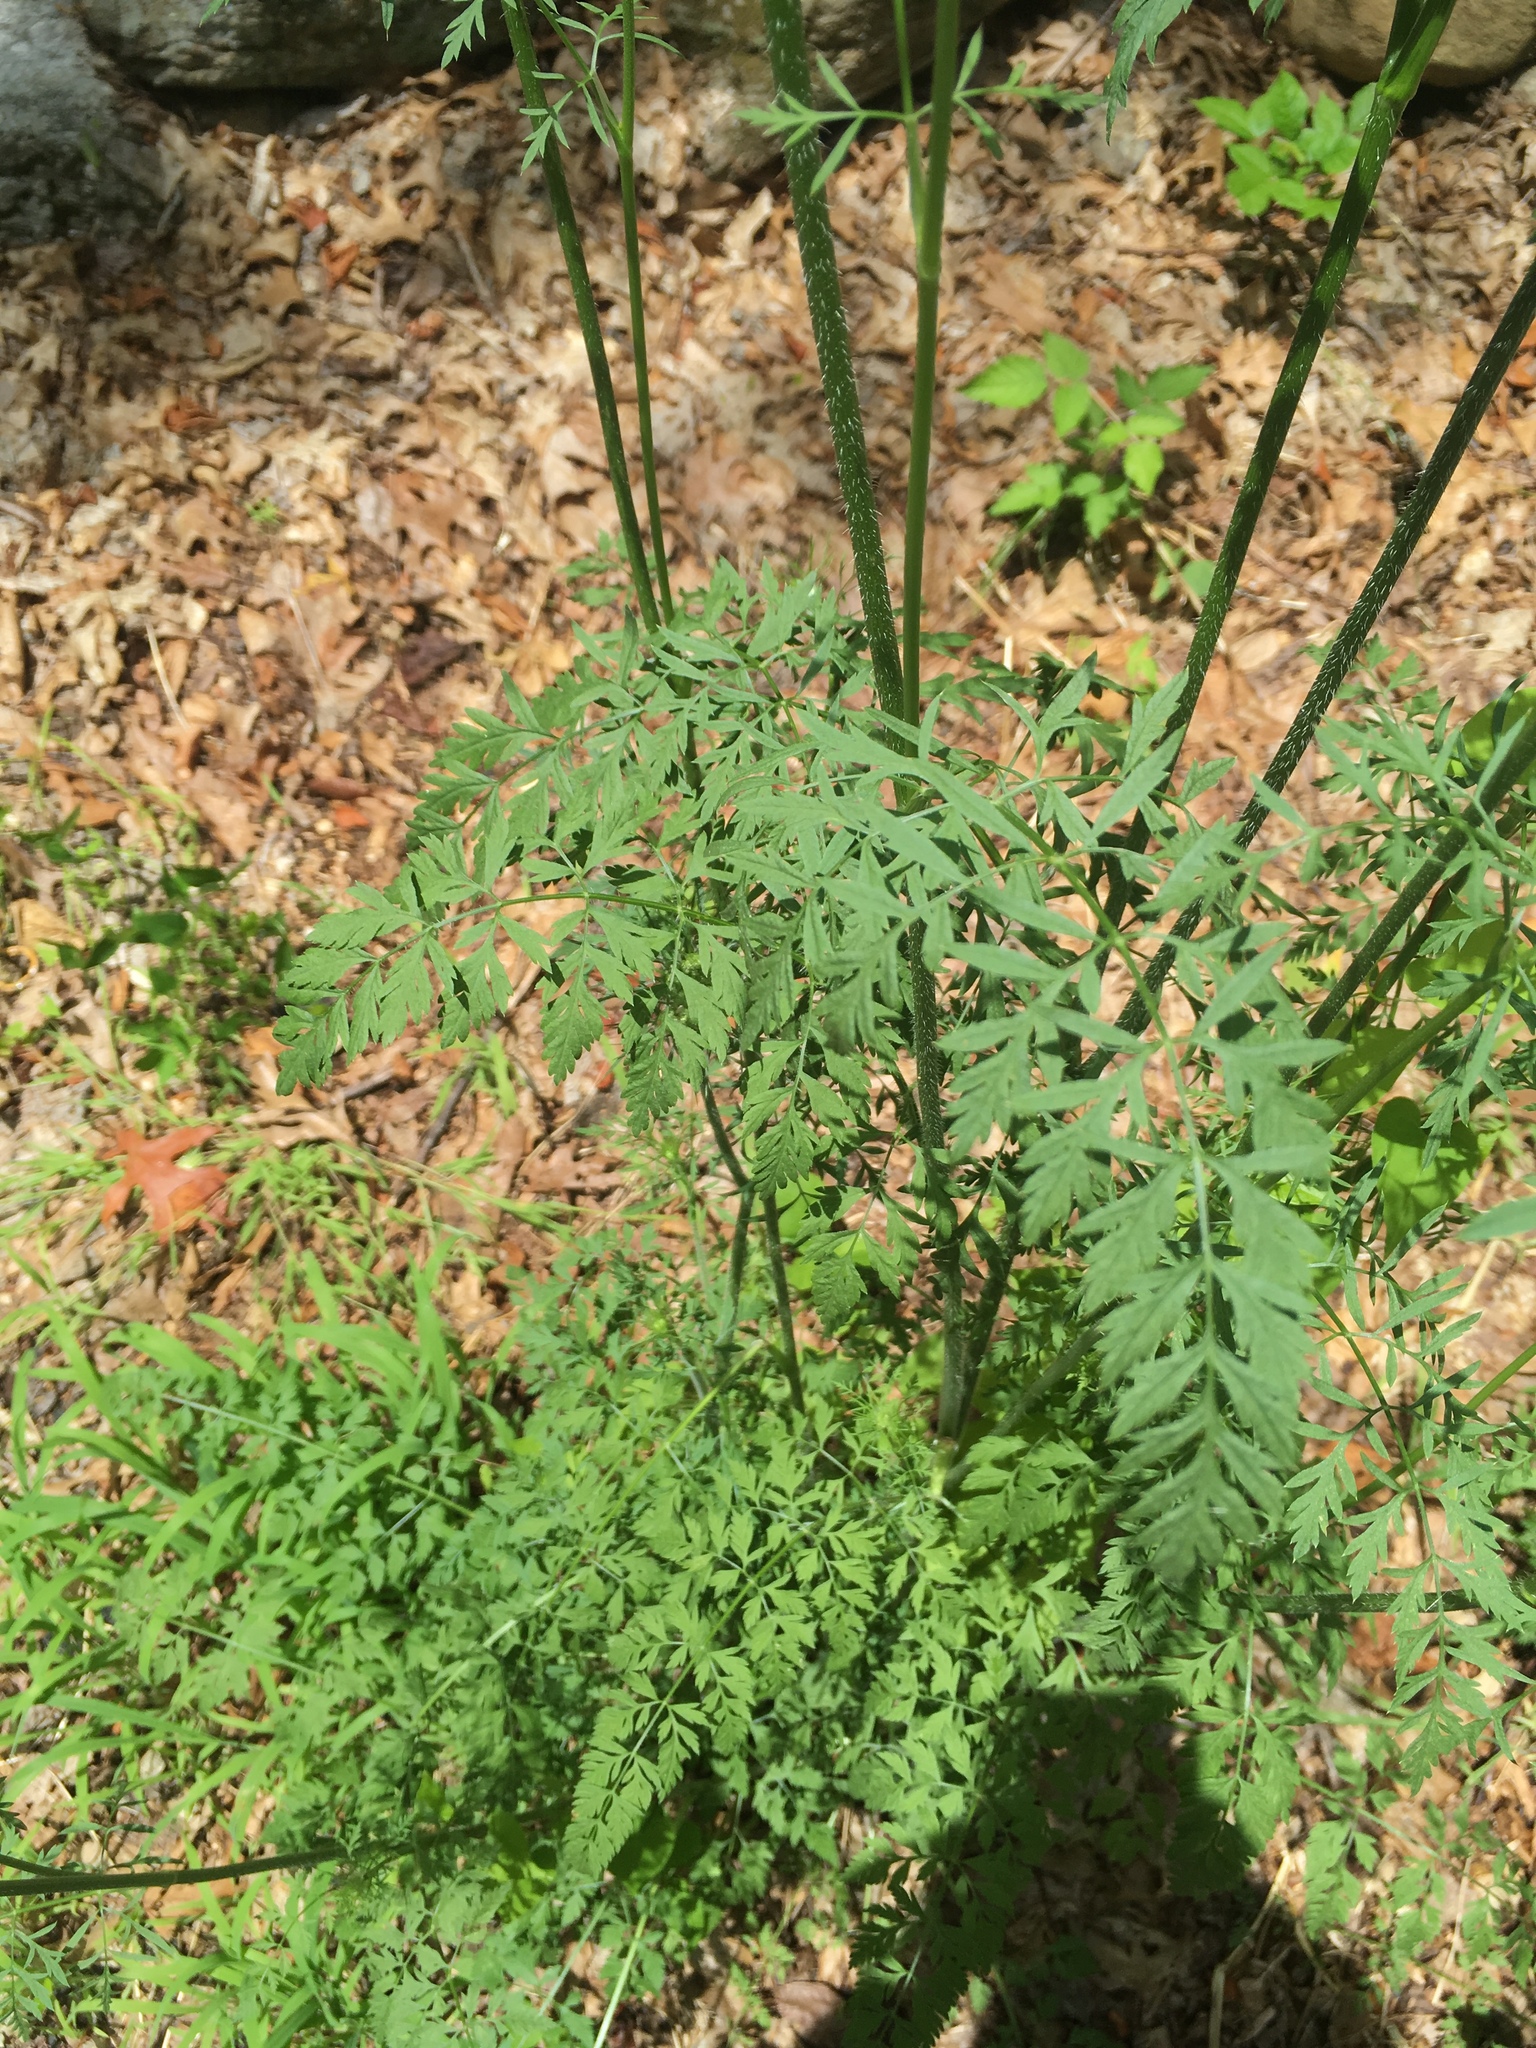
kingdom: Plantae
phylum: Tracheophyta
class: Magnoliopsida
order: Apiales
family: Apiaceae
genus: Daucus
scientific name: Daucus carota
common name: Wild carrot
